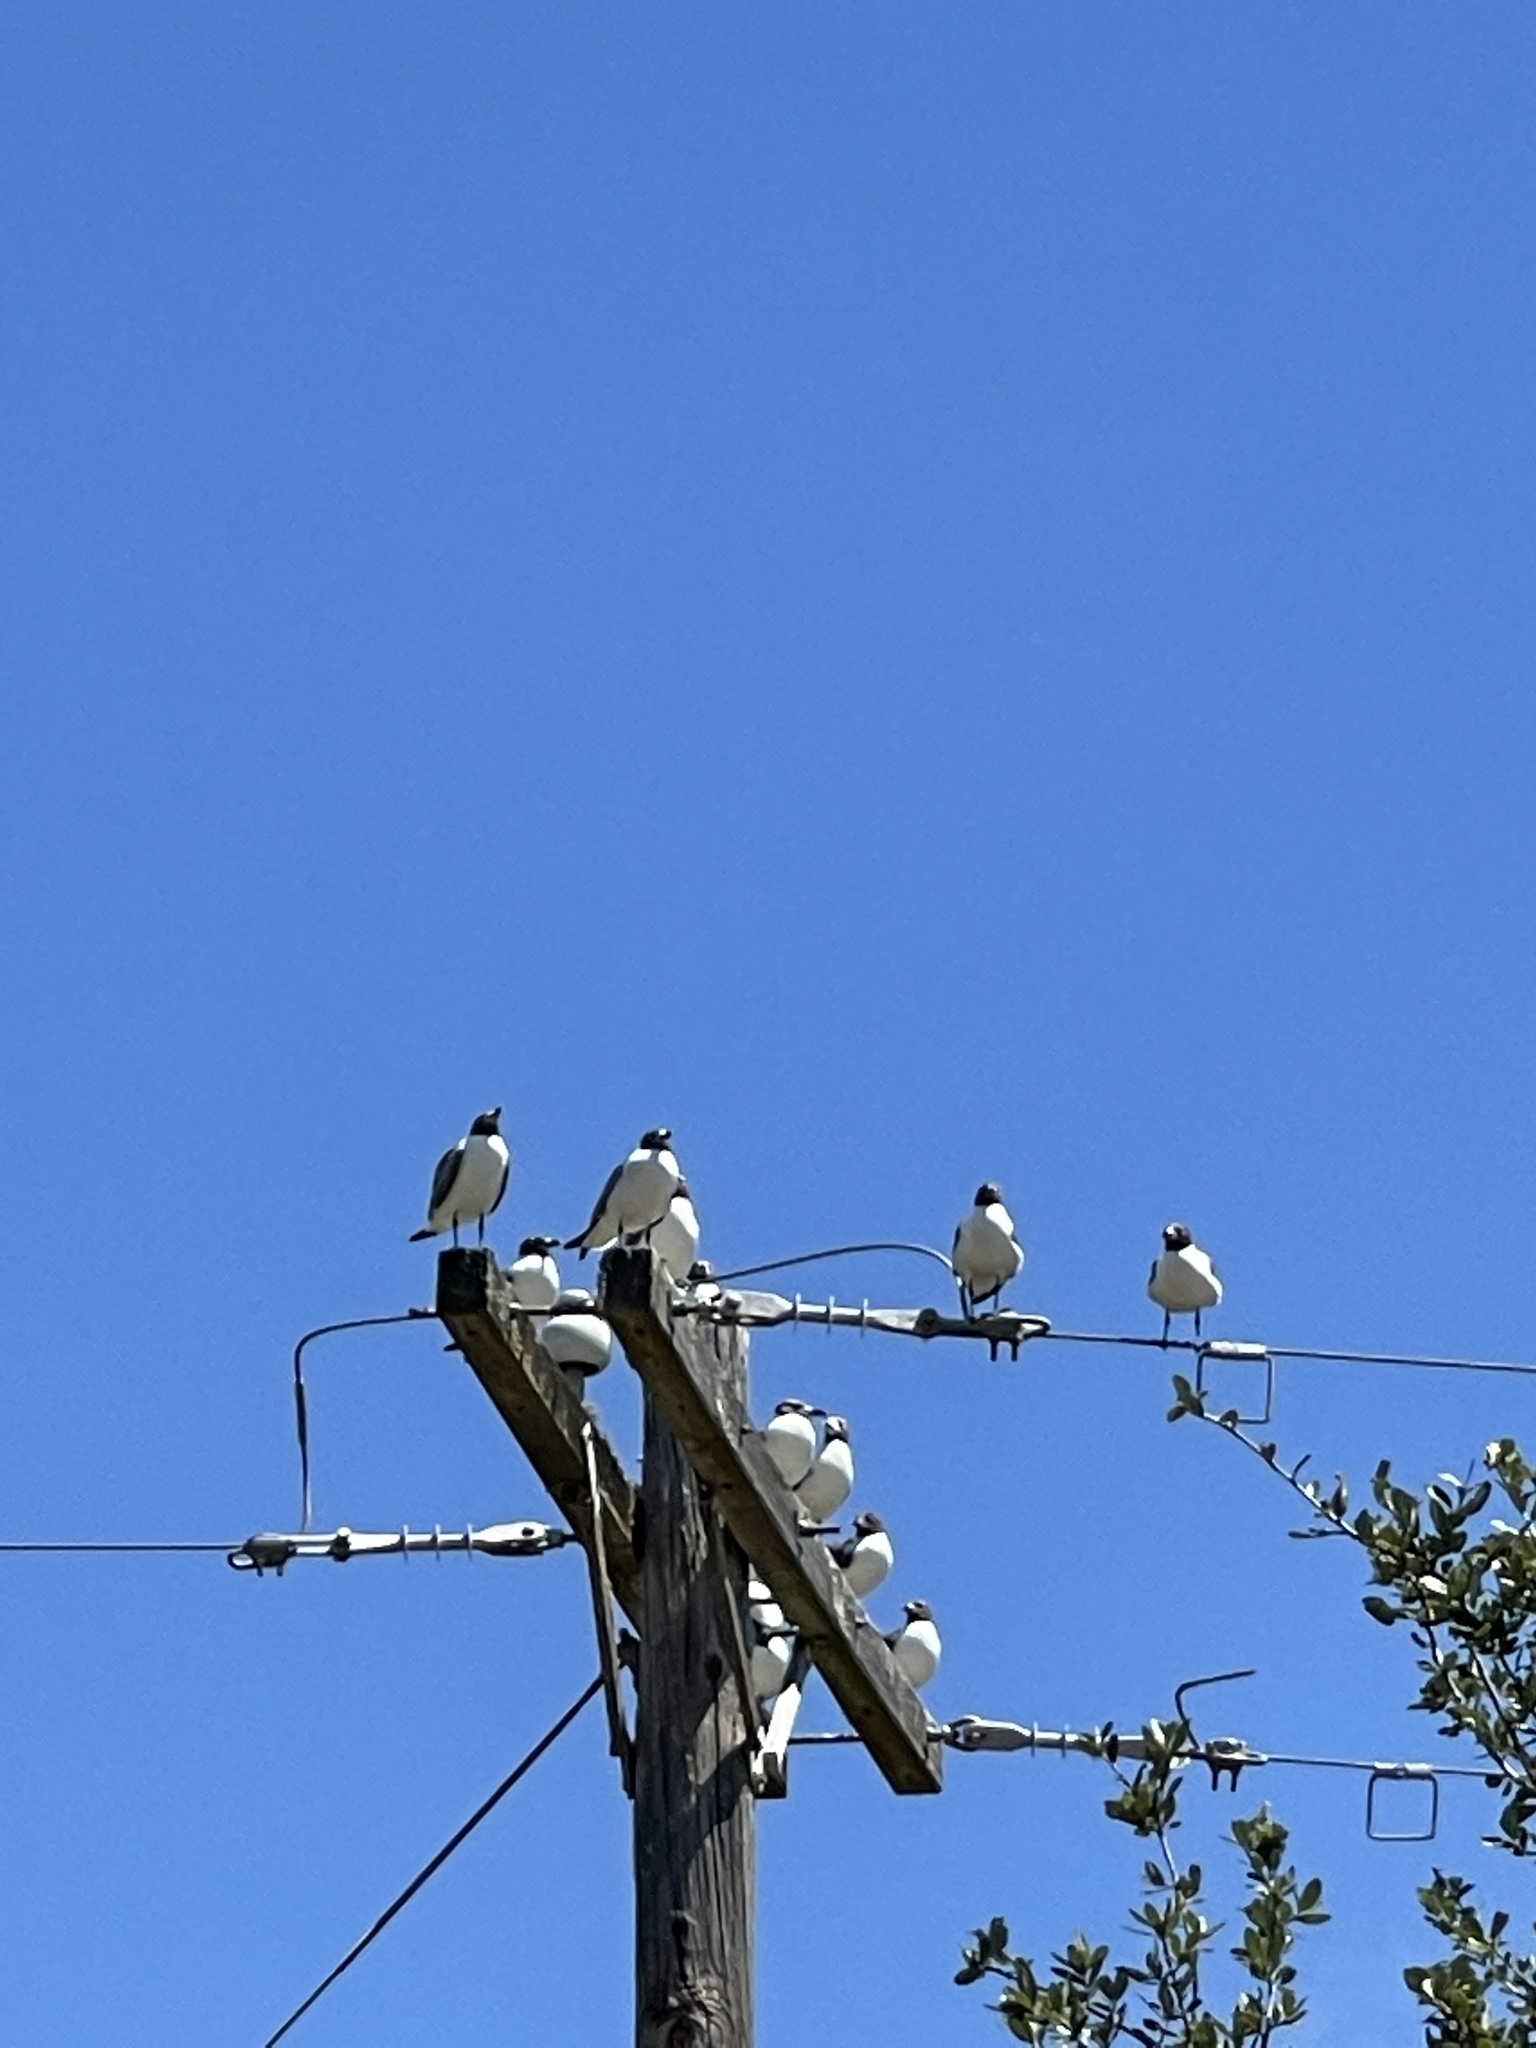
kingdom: Animalia
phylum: Chordata
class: Aves
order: Charadriiformes
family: Laridae
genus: Leucophaeus
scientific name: Leucophaeus atricilla
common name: Laughing gull
